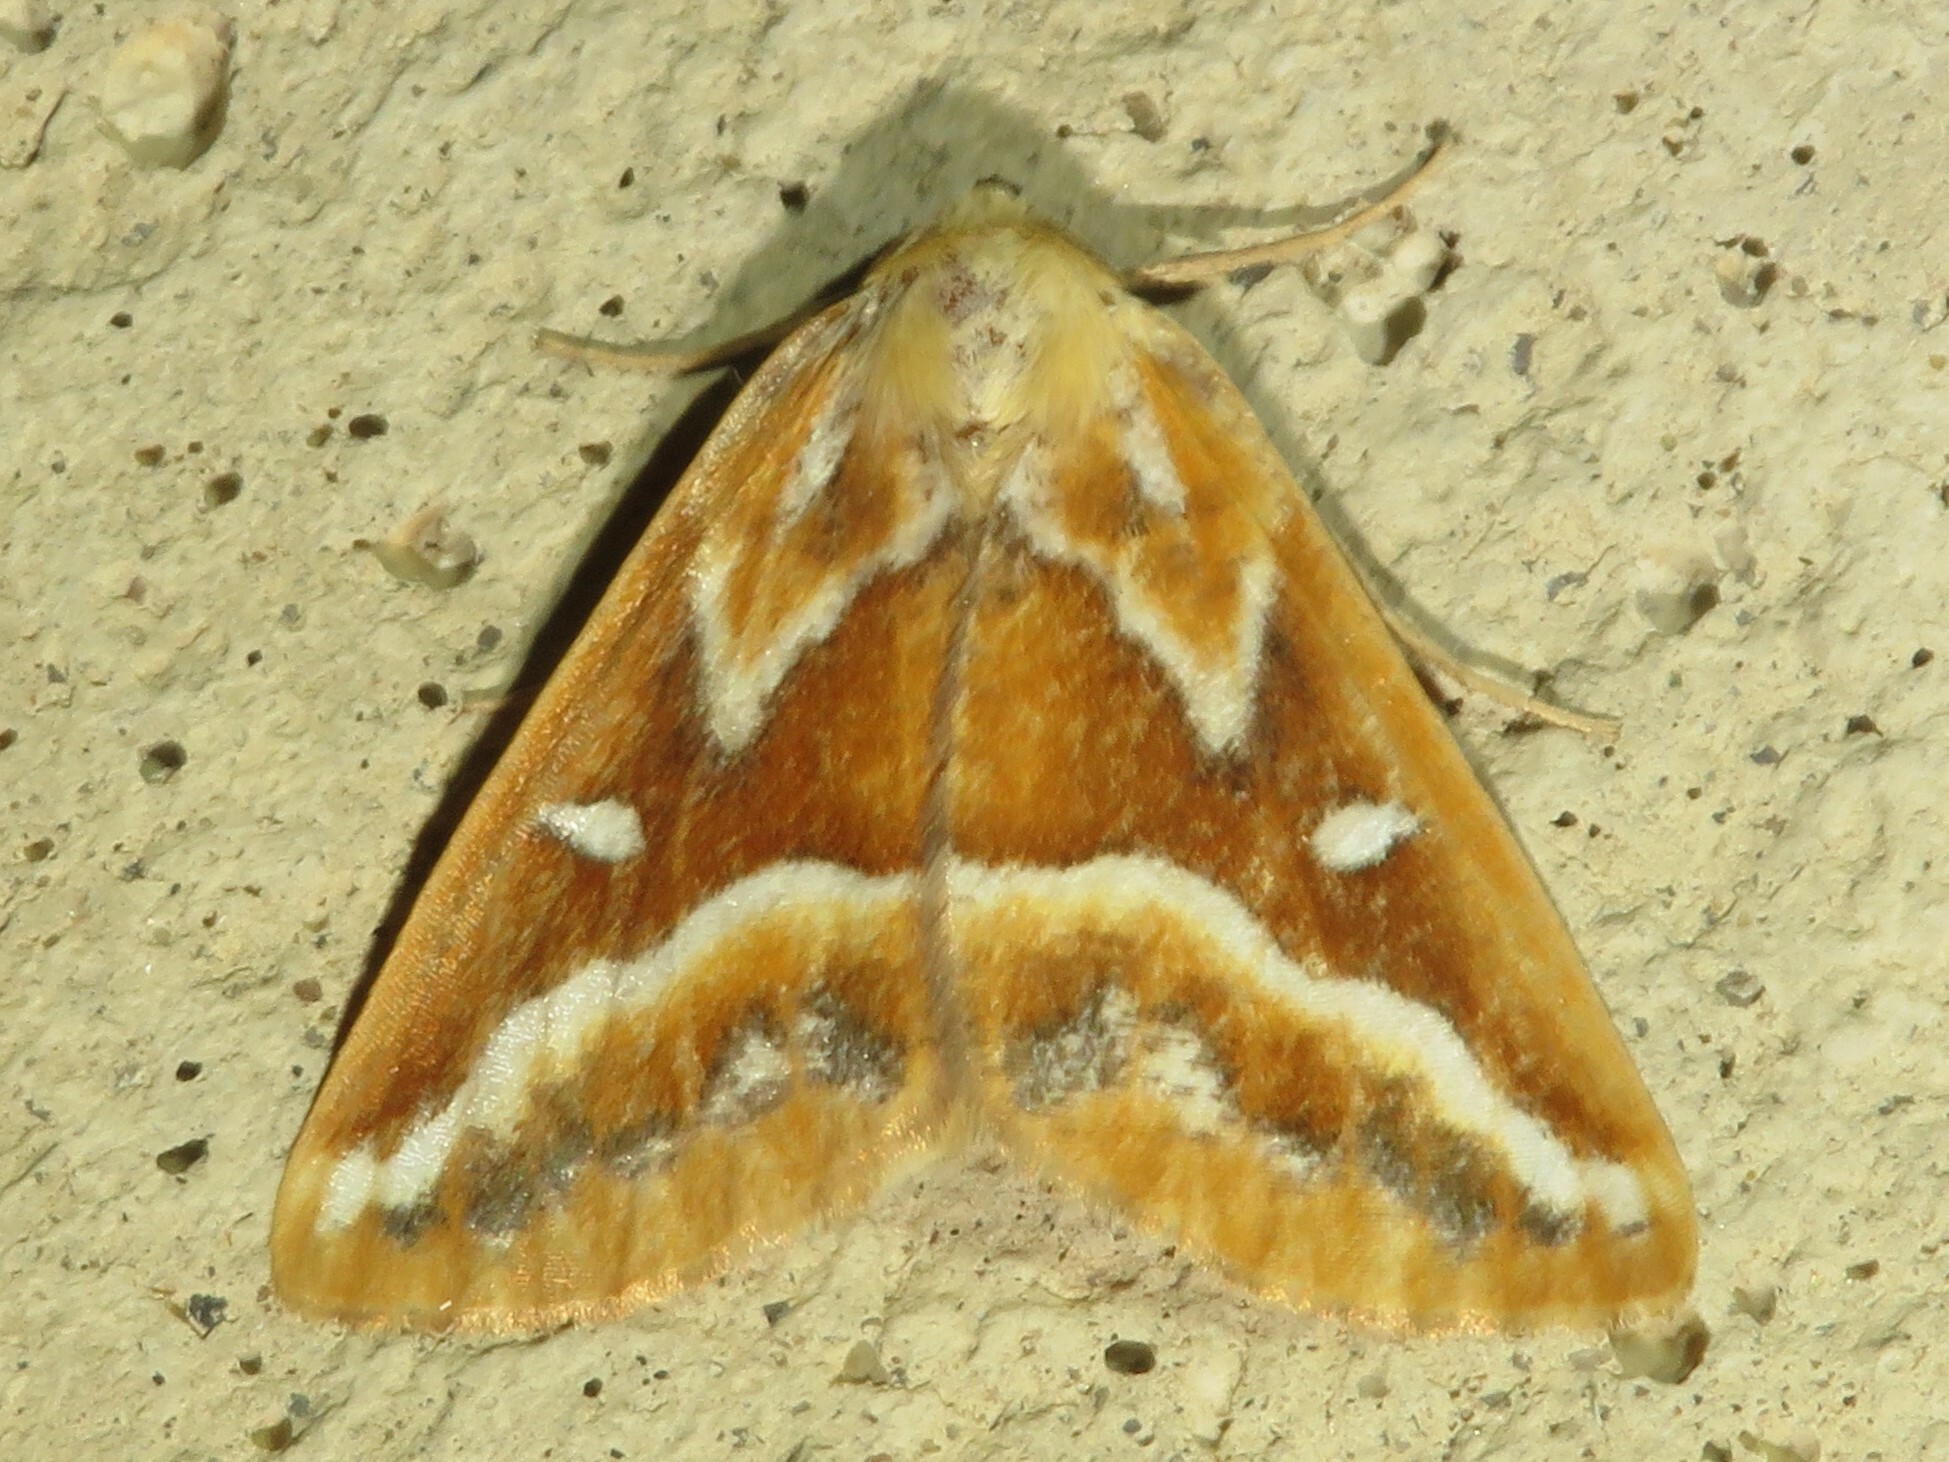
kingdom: Animalia
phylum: Arthropoda
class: Insecta
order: Lepidoptera
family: Geometridae
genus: Caripeta
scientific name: Caripeta angustiorata
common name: Brown pine looper
